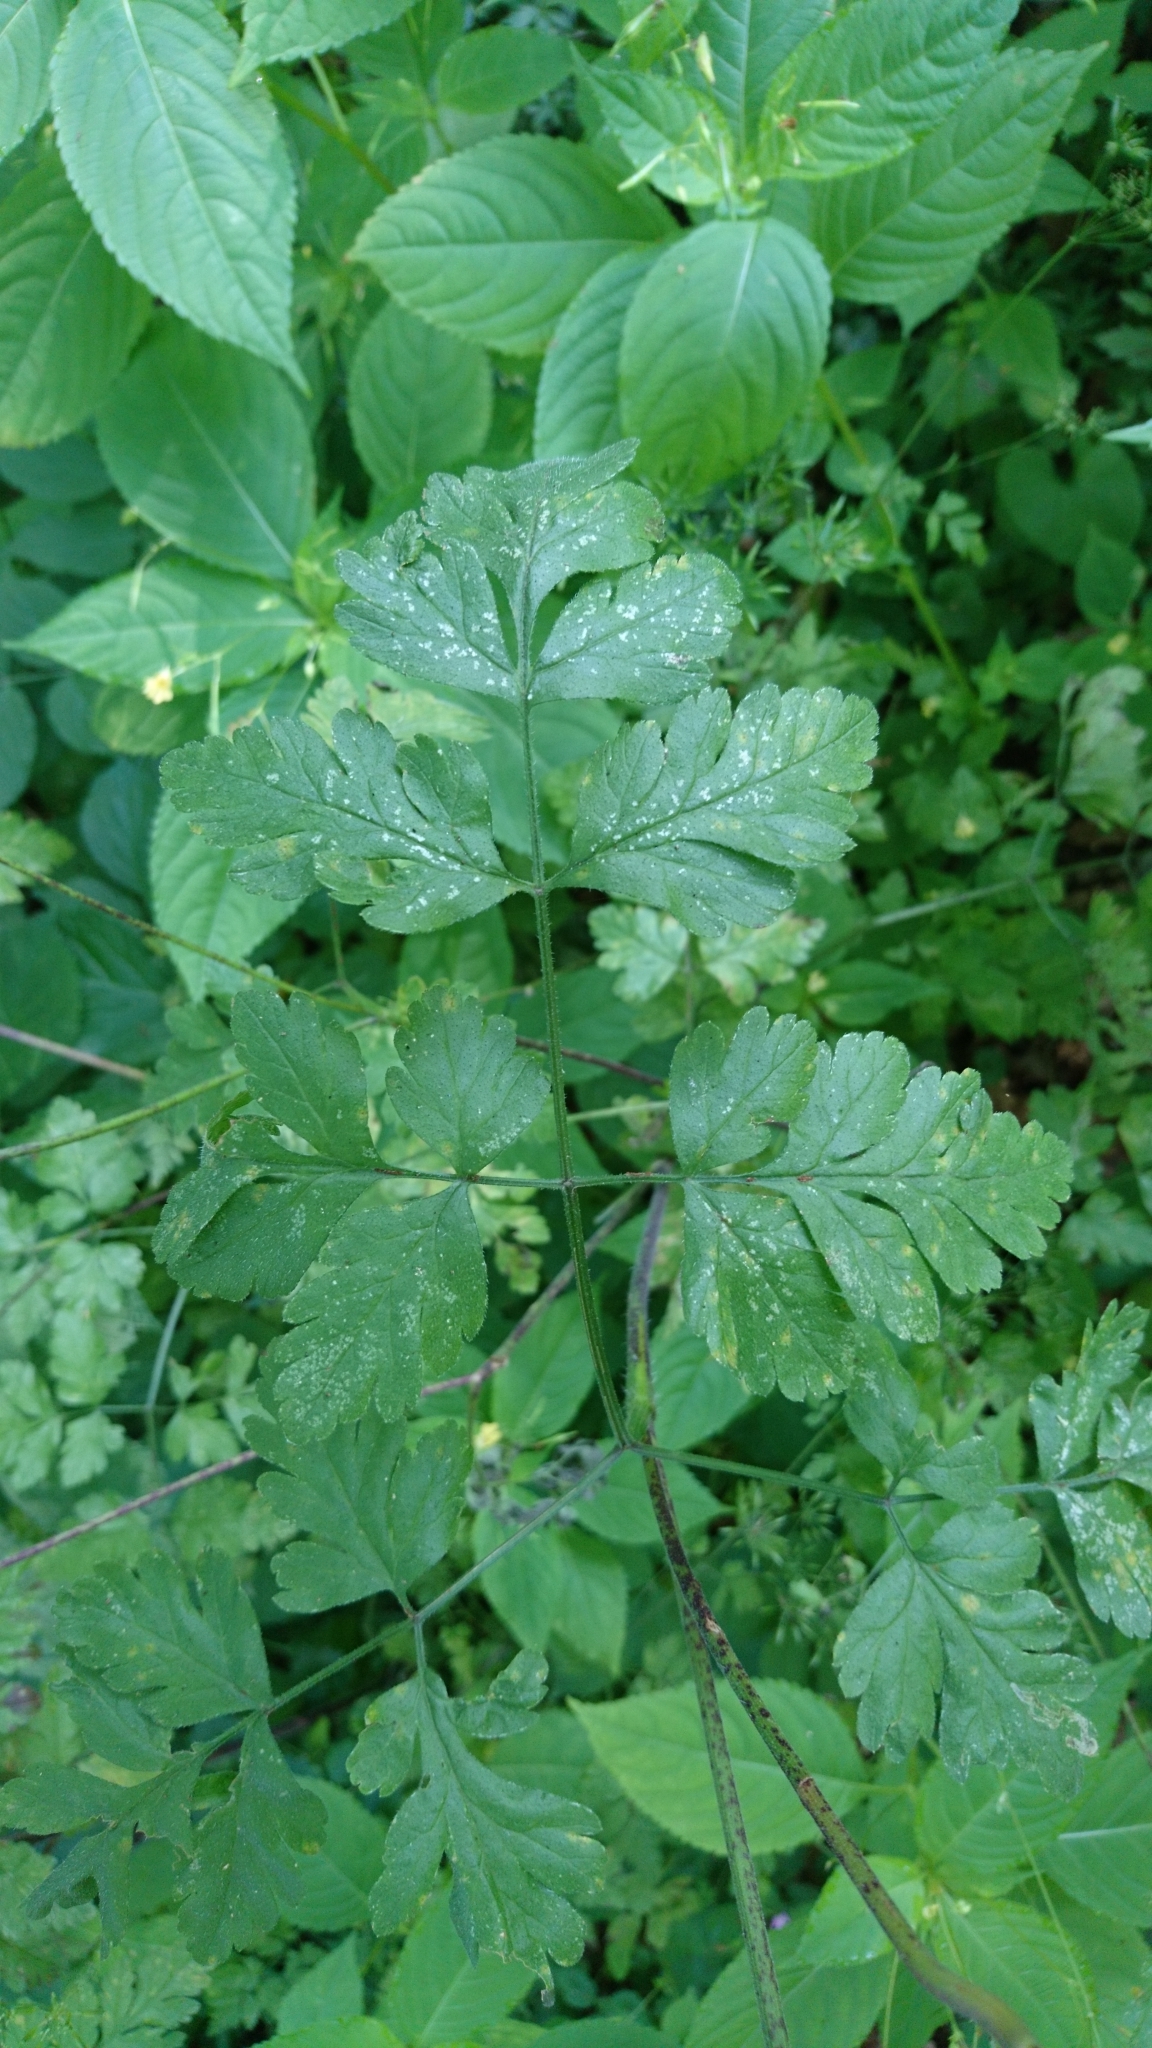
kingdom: Plantae
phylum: Tracheophyta
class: Magnoliopsida
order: Apiales
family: Apiaceae
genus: Chaerophyllum
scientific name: Chaerophyllum temulum
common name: Rough chervil
